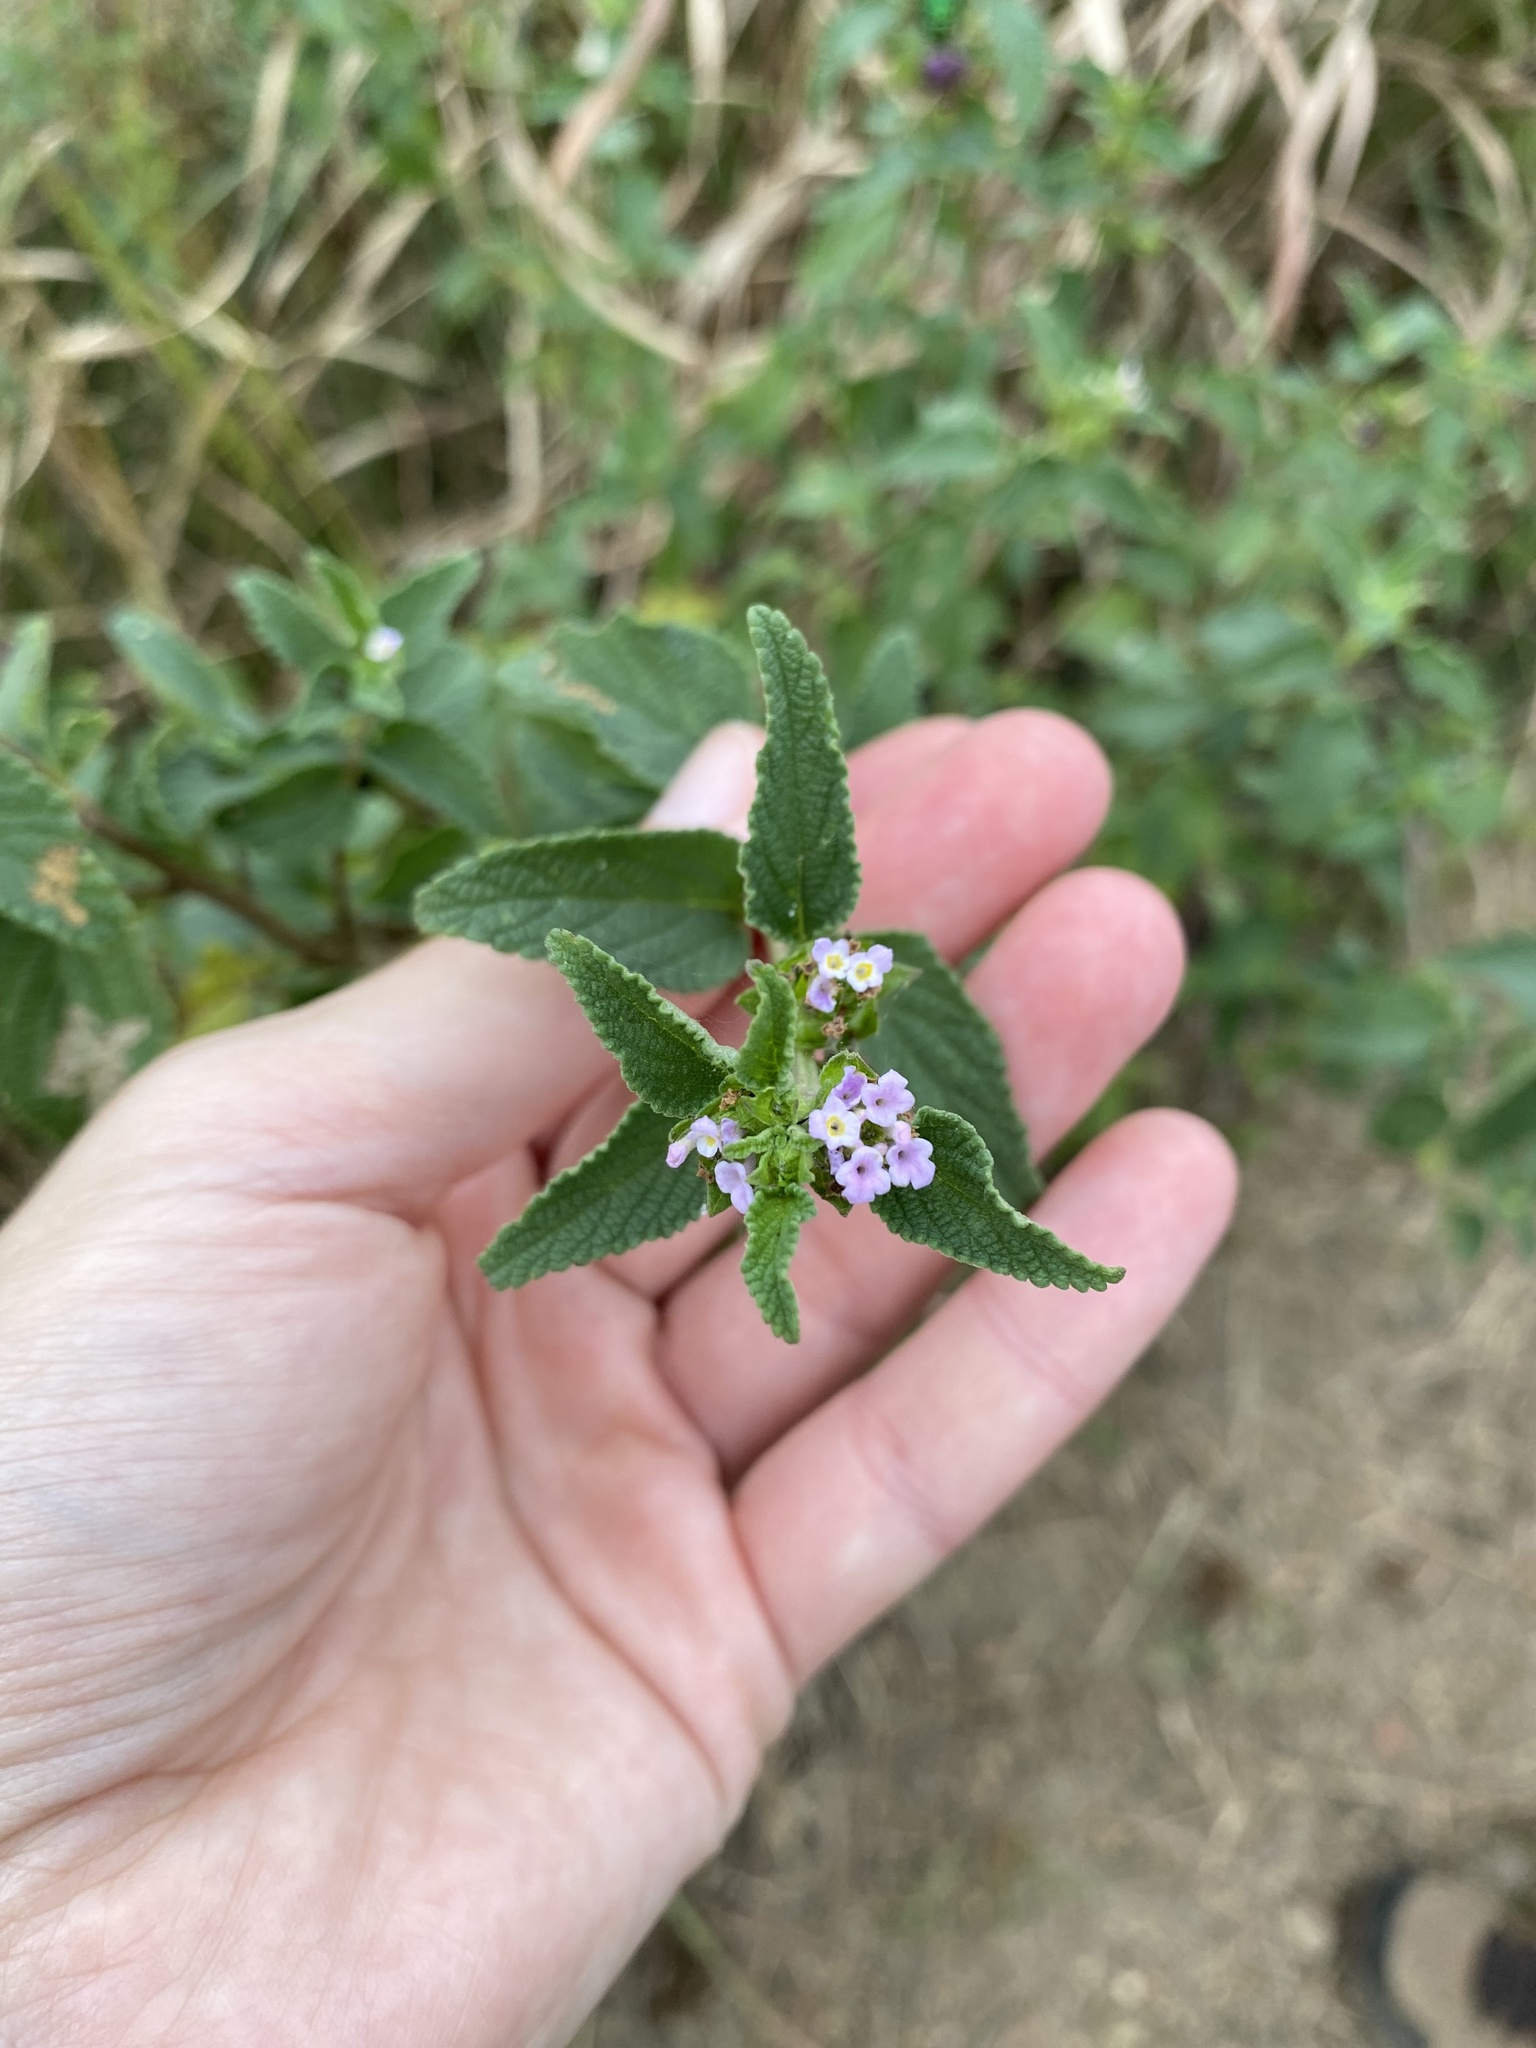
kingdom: Plantae
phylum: Tracheophyta
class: Magnoliopsida
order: Lamiales
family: Verbenaceae
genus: Lantana
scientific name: Lantana rugosa
